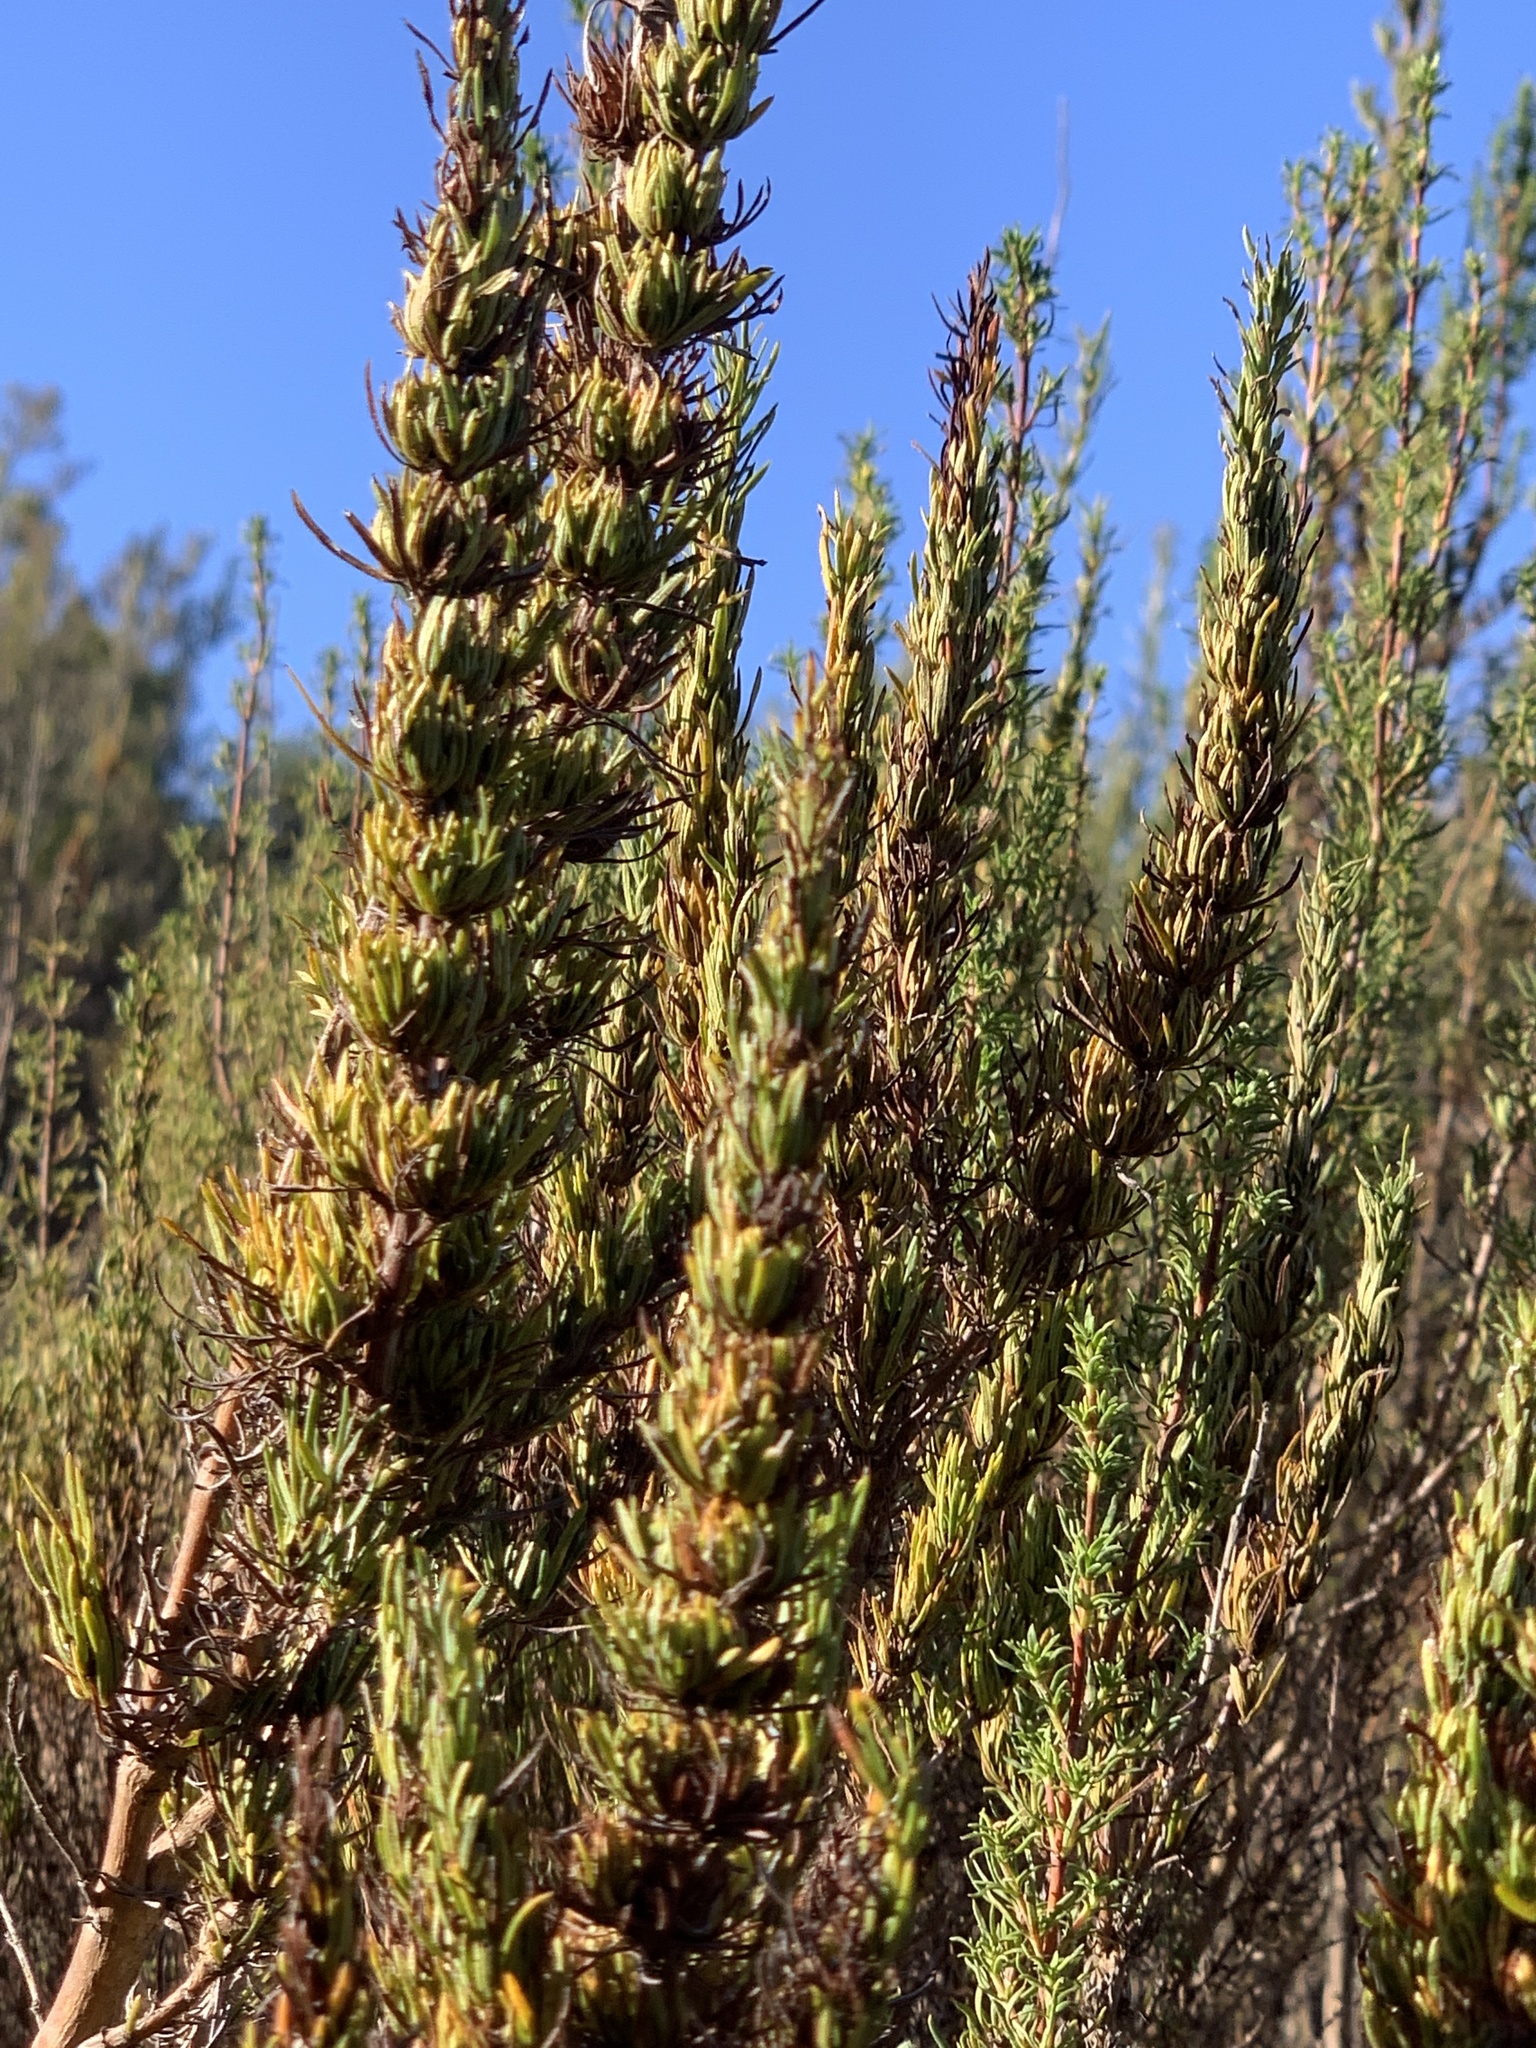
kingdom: Plantae
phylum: Tracheophyta
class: Magnoliopsida
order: Gentianales
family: Rubiaceae
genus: Anthospermum
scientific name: Anthospermum aethiopicum
